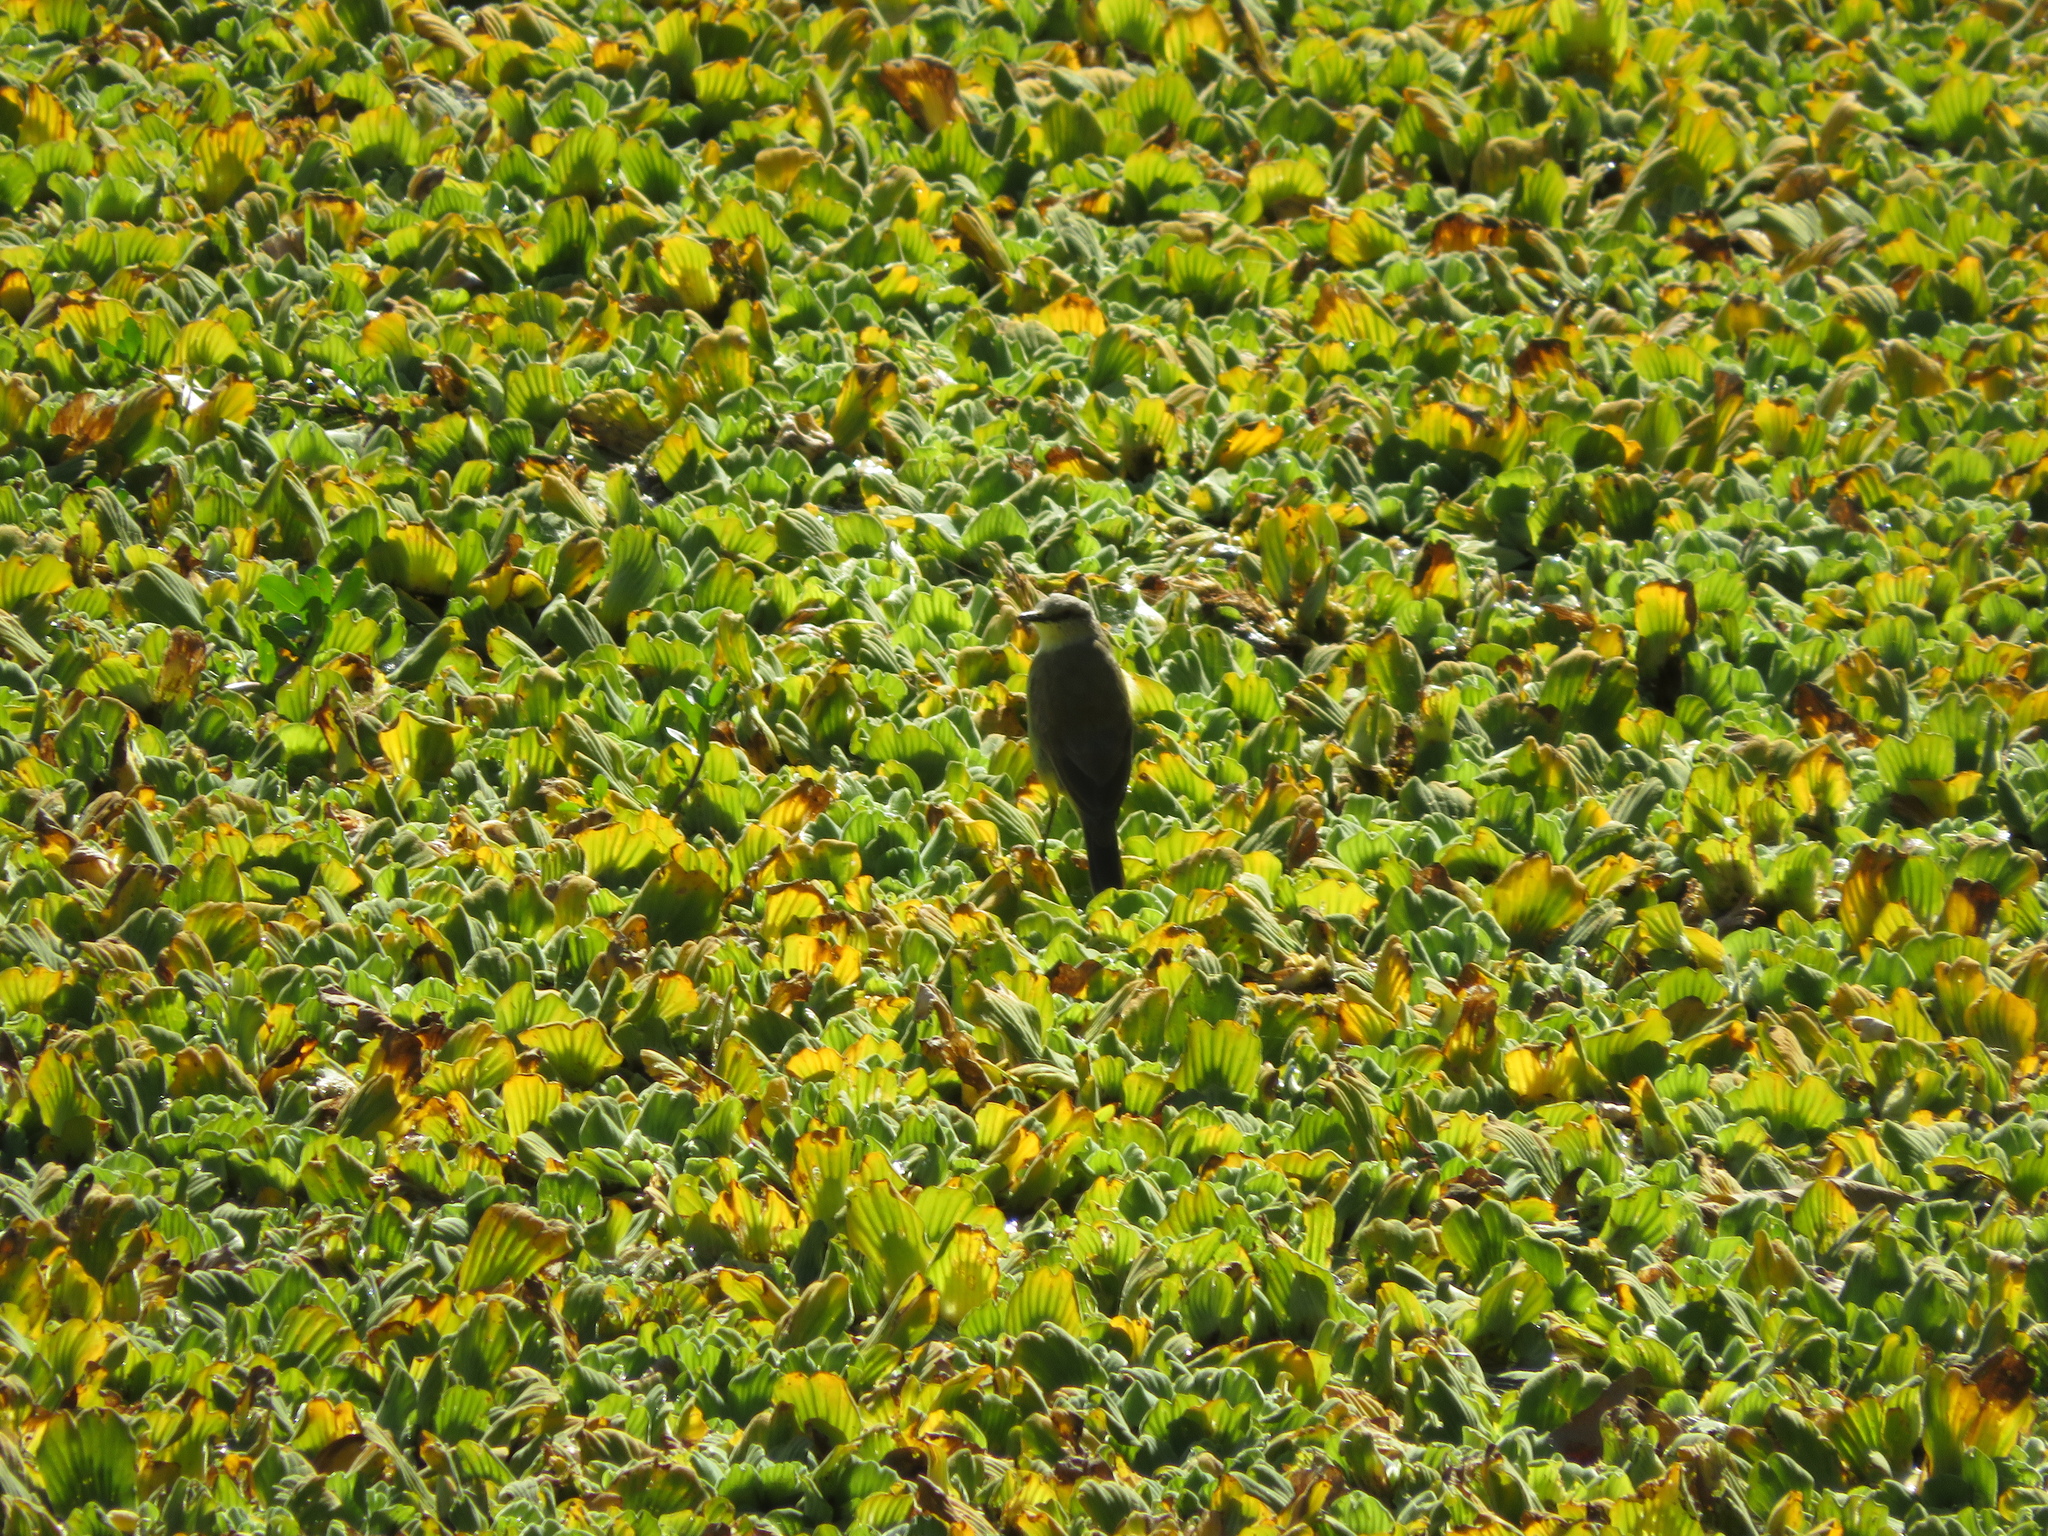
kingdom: Animalia
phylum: Chordata
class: Aves
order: Passeriformes
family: Tyrannidae
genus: Machetornis
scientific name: Machetornis rixosa
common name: Cattle tyrant
